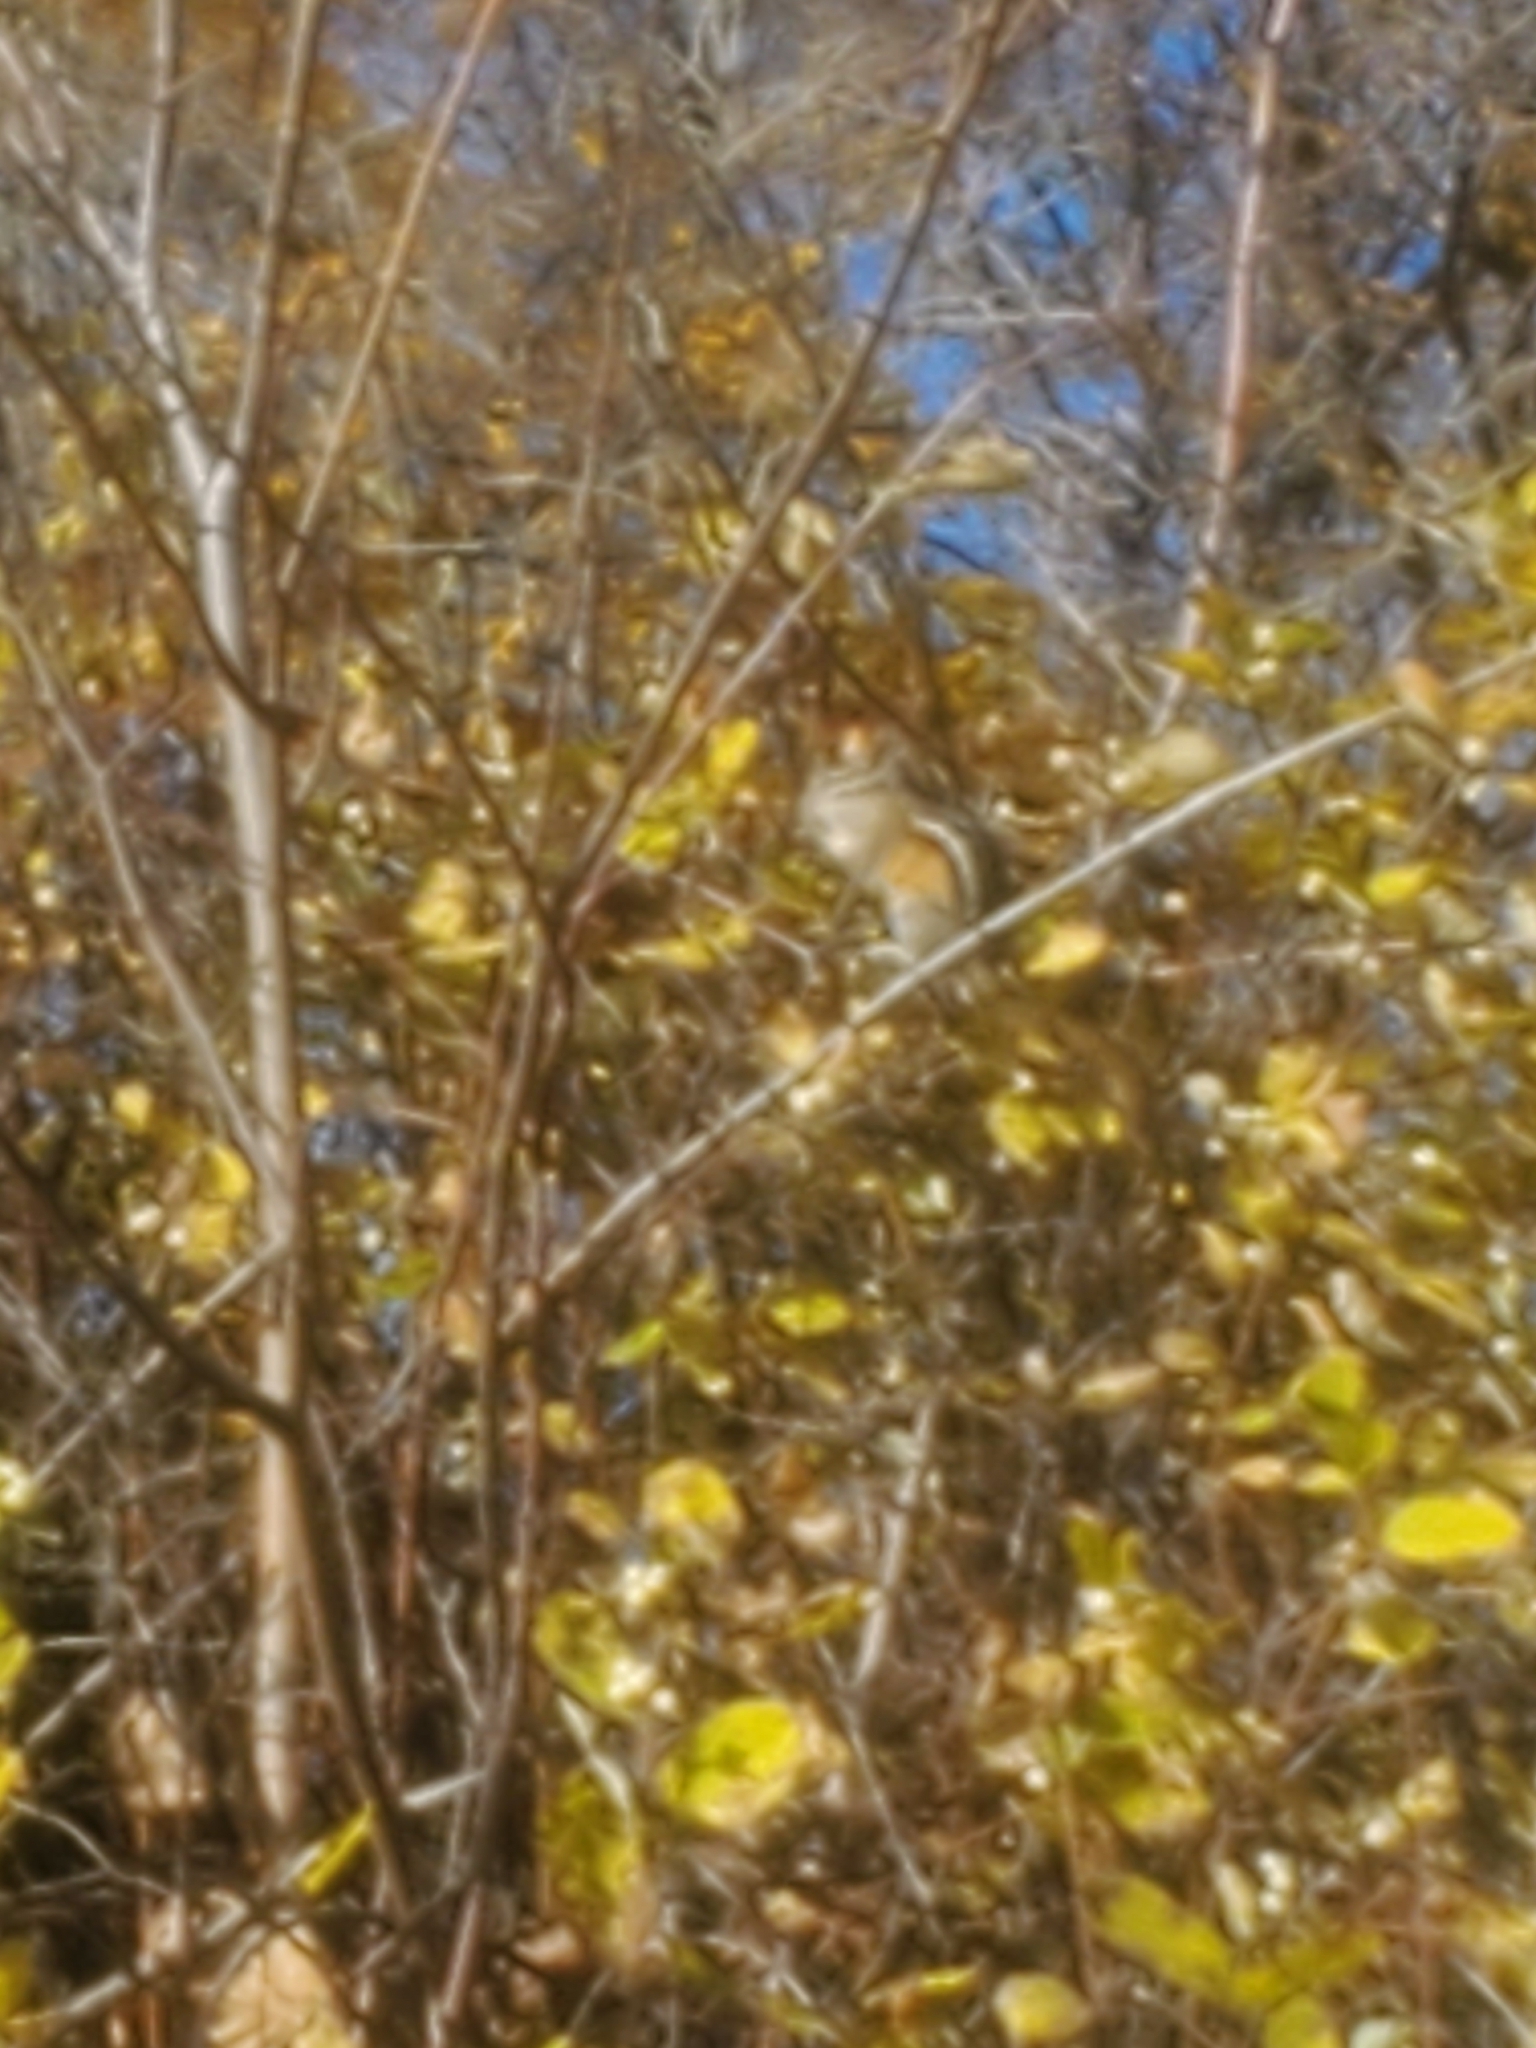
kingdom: Animalia
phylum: Chordata
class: Mammalia
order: Rodentia
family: Sciuridae
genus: Tamias
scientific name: Tamias minimus
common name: Least chipmunk
